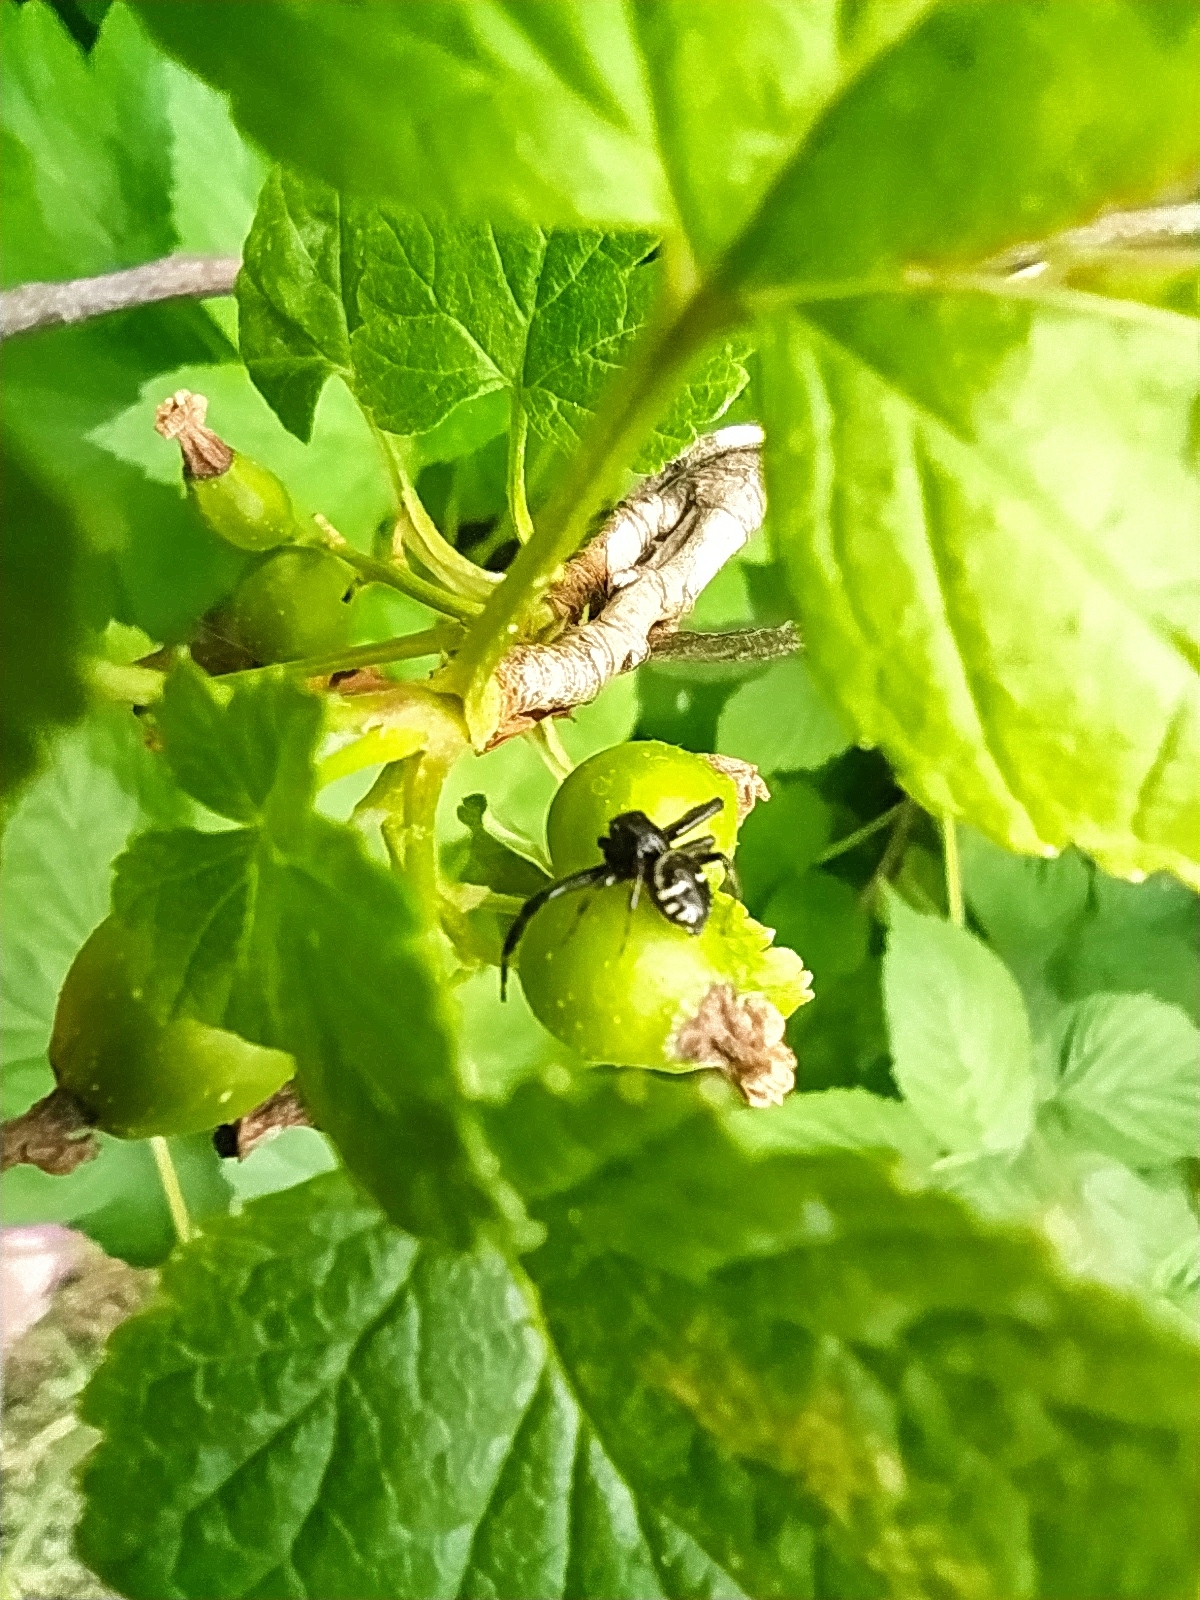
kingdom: Animalia
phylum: Arthropoda
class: Arachnida
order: Araneae
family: Thomisidae
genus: Synema
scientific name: Synema globosum
